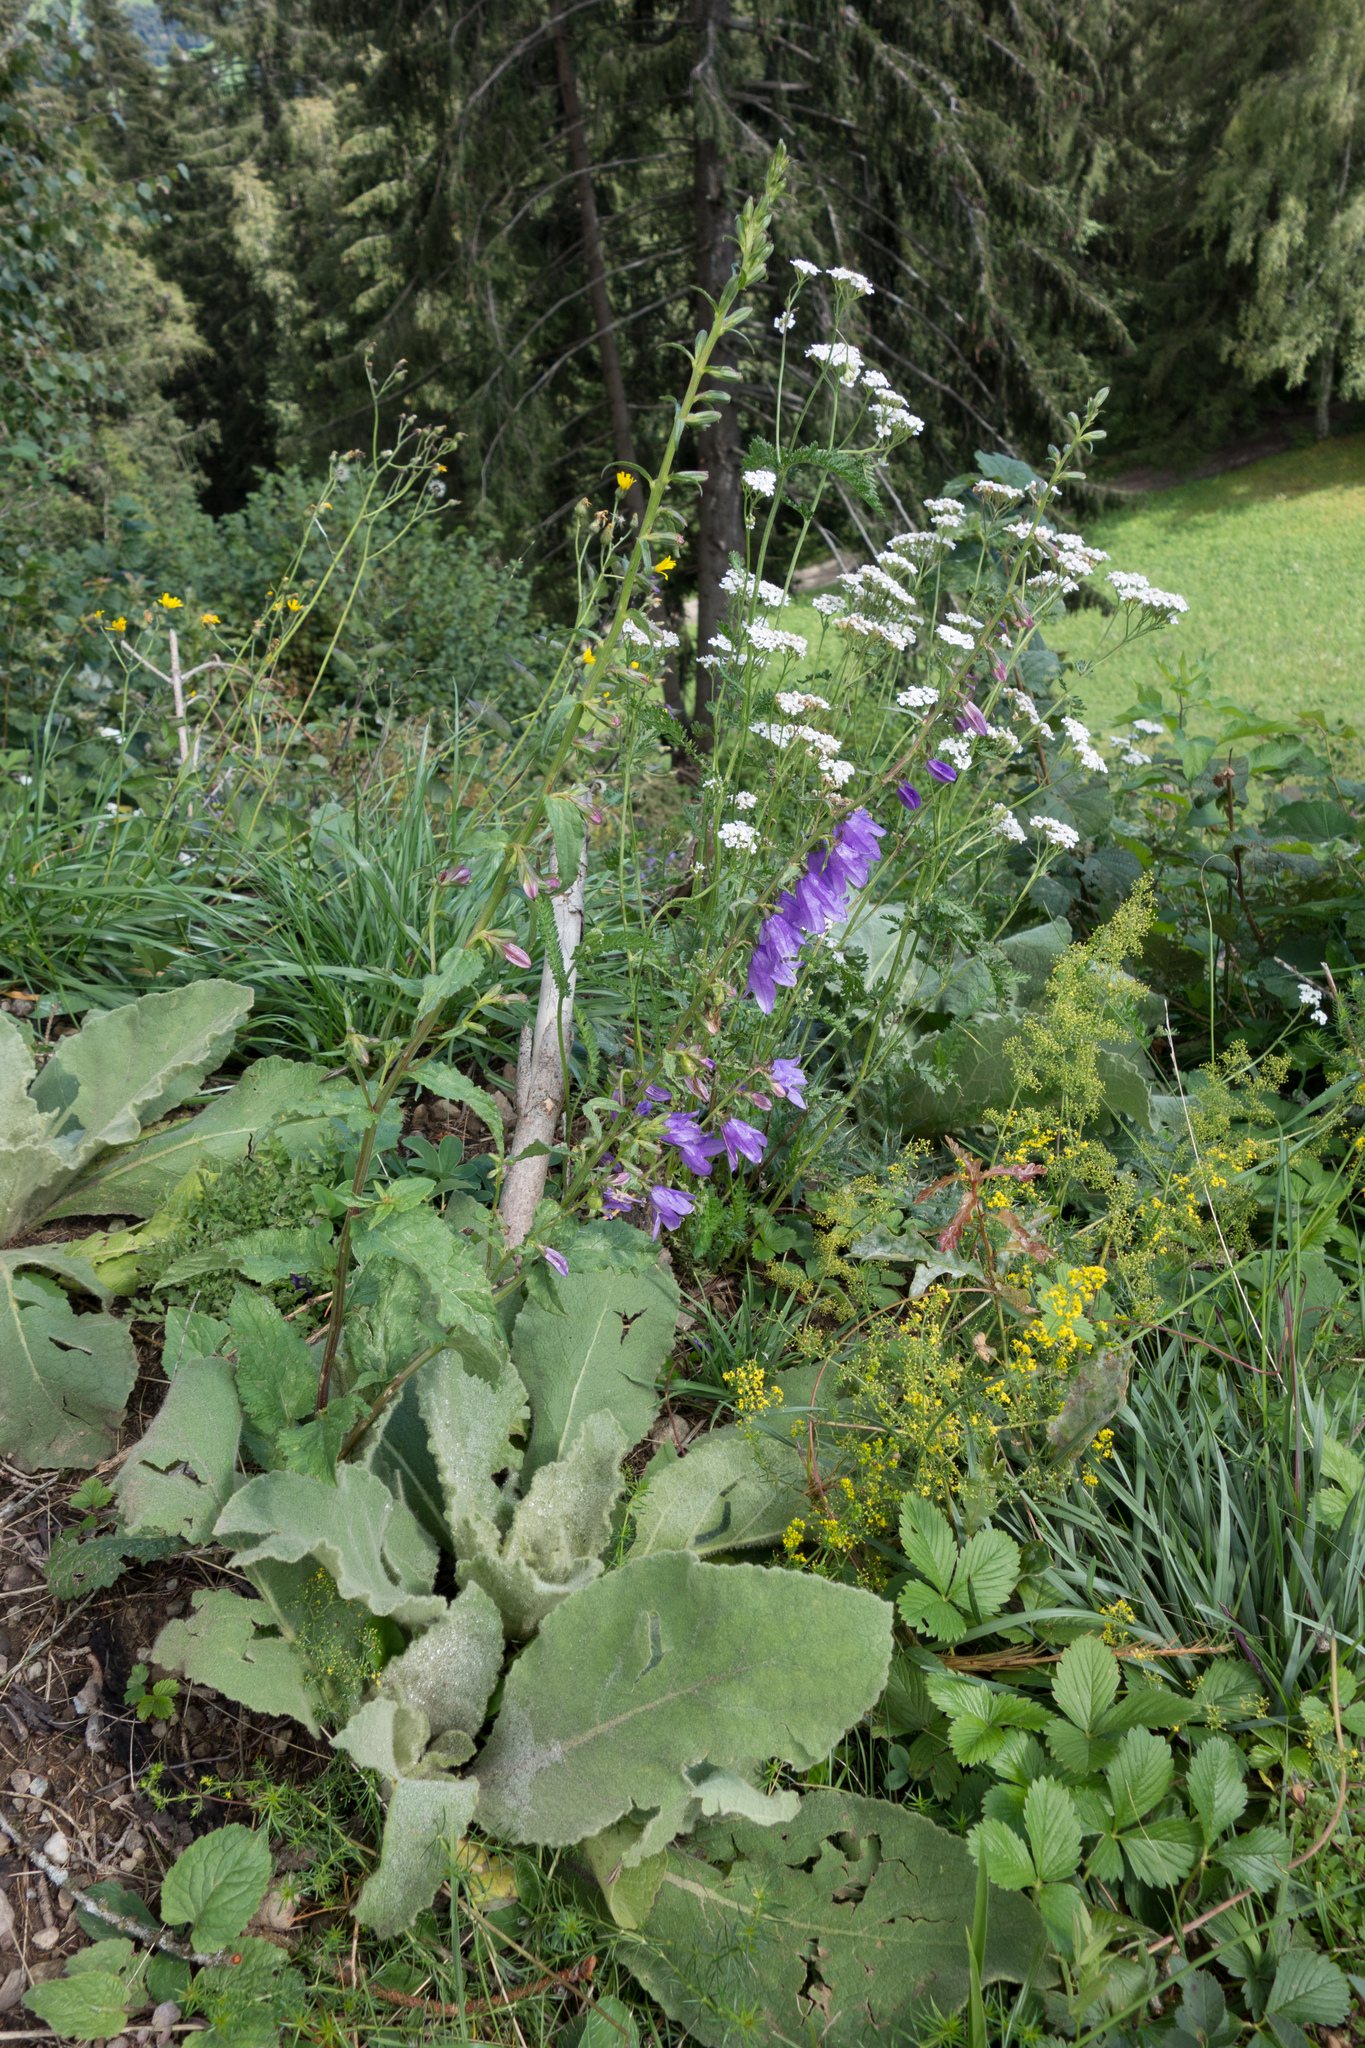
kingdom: Plantae
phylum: Tracheophyta
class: Magnoliopsida
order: Asterales
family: Campanulaceae
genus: Campanula
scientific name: Campanula rapunculoides
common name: Creeping bellflower
